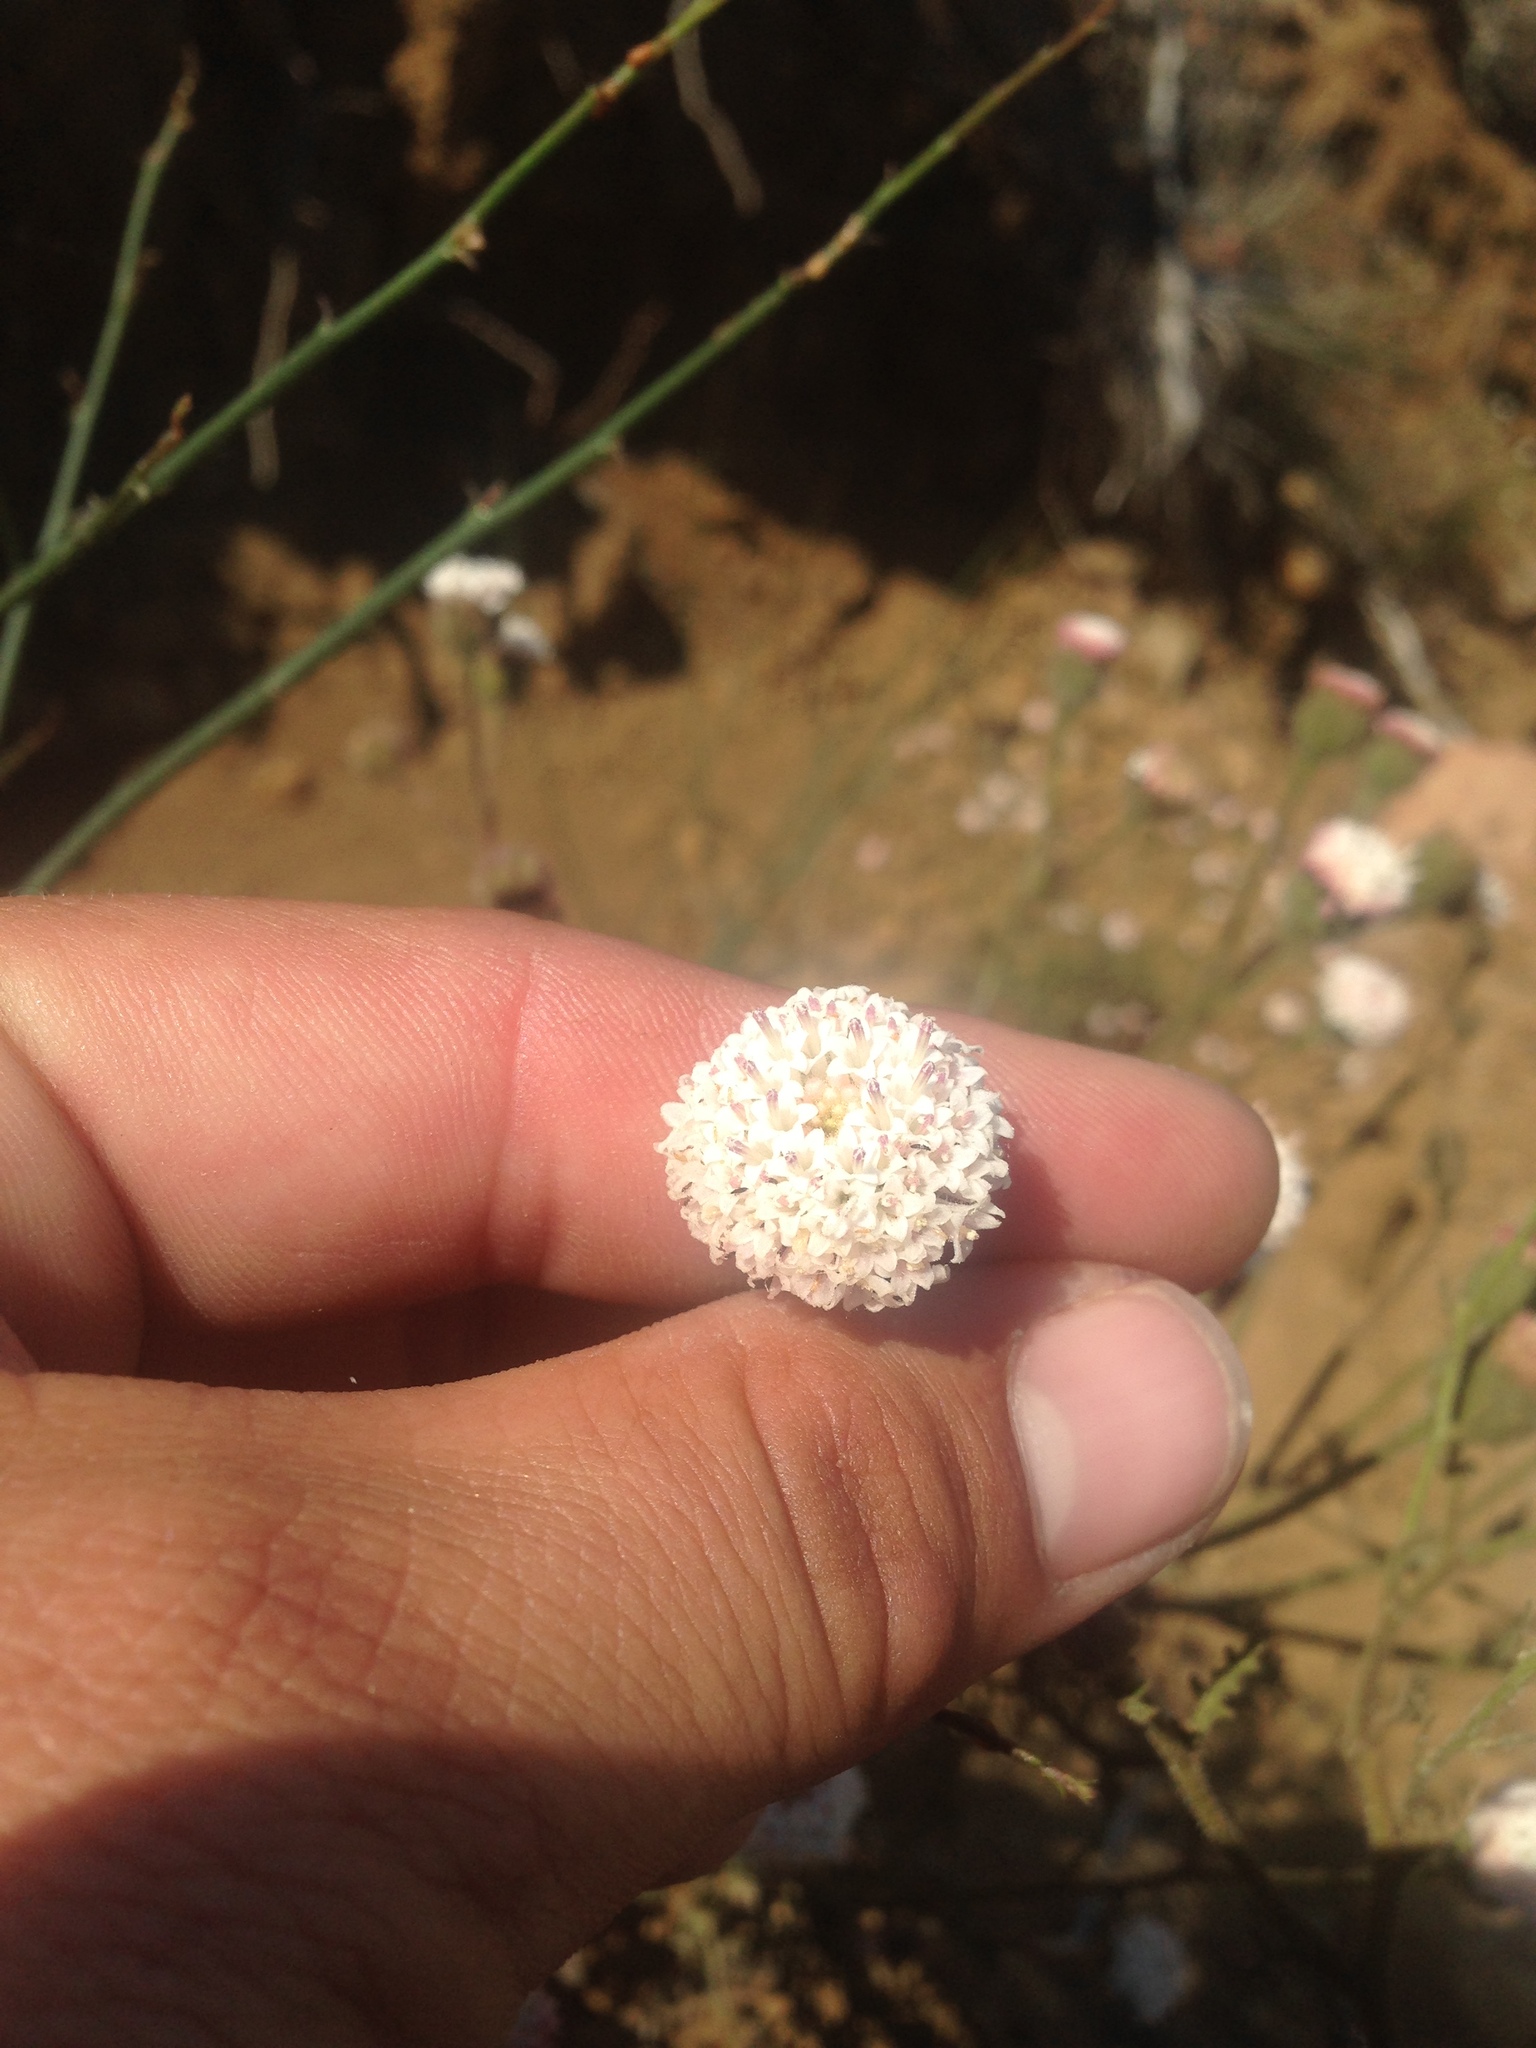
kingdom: Plantae
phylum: Tracheophyta
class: Magnoliopsida
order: Asterales
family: Asteraceae
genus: Chaenactis
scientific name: Chaenactis artemisiifolia
